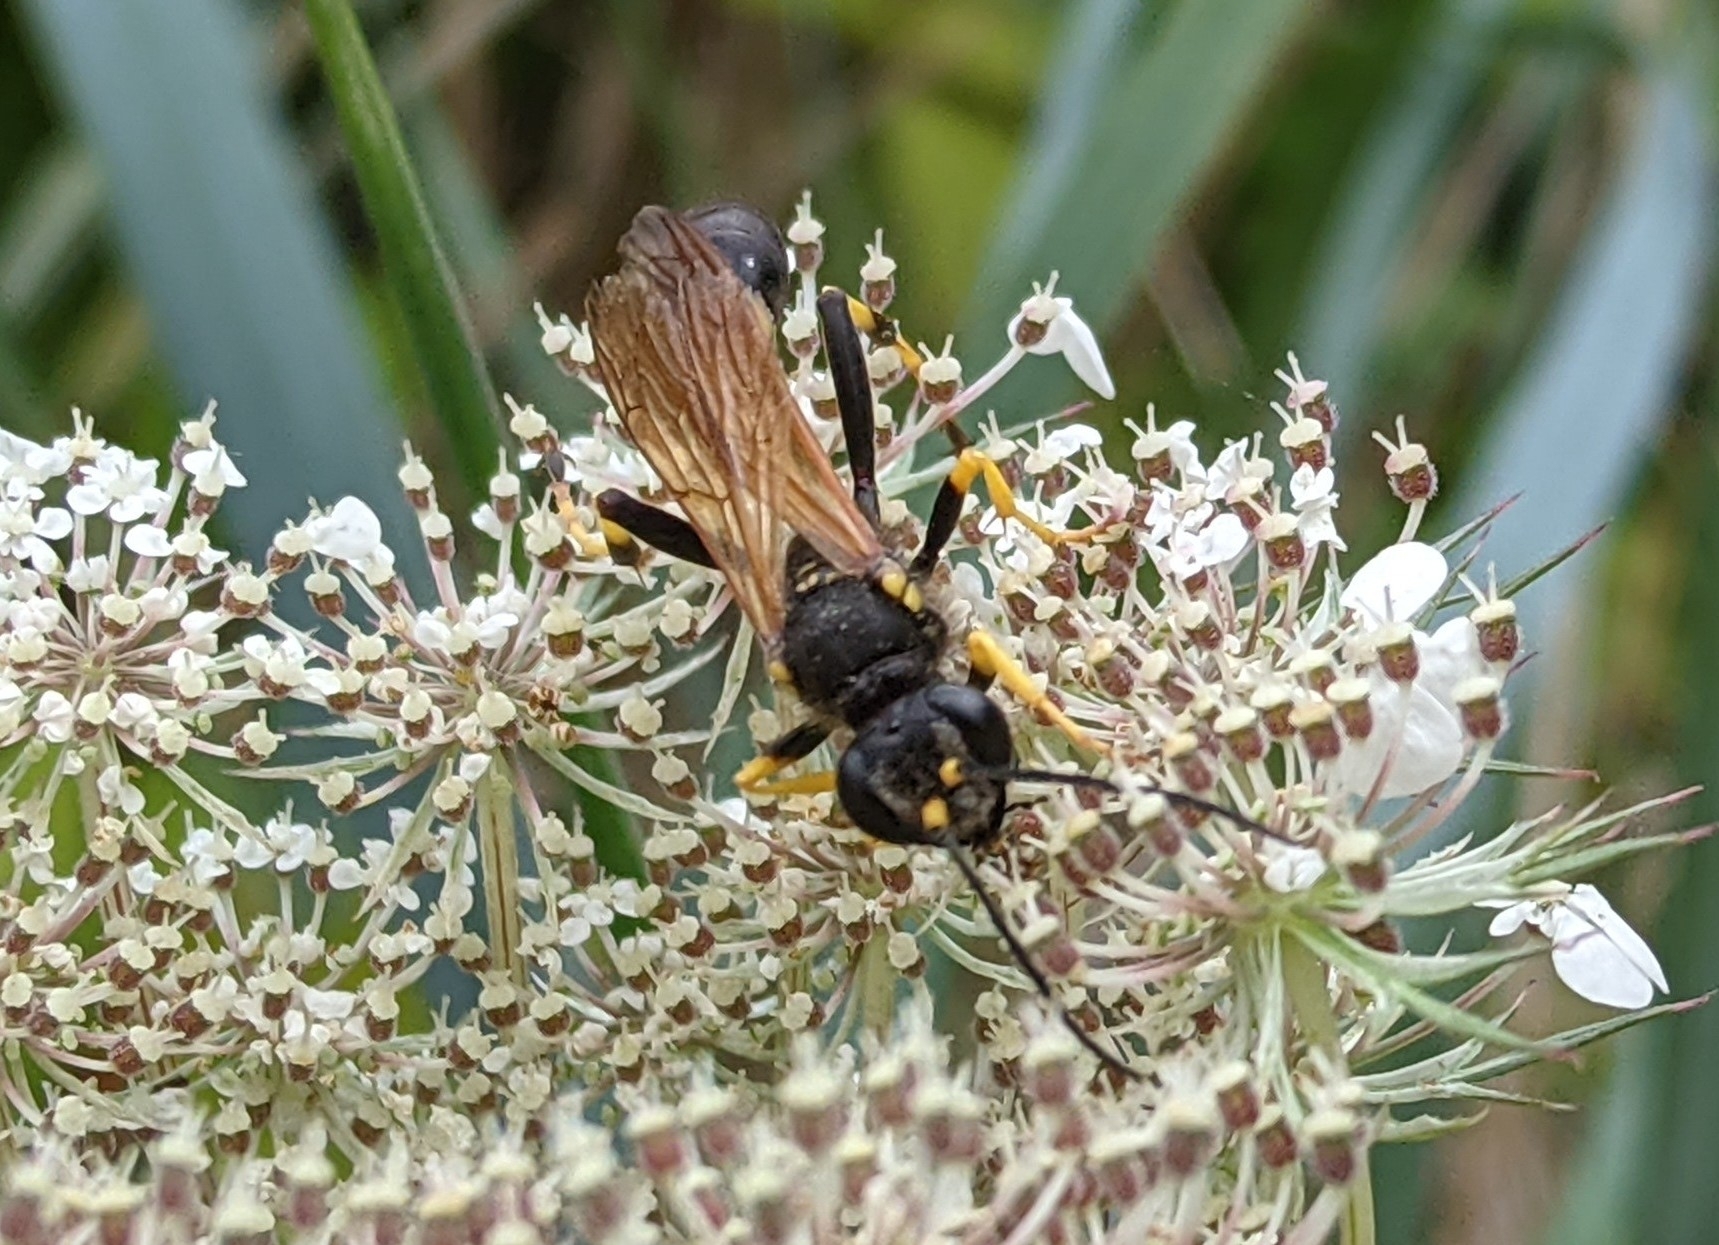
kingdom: Animalia
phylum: Arthropoda
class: Insecta
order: Hymenoptera
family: Sphecidae
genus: Sceliphron
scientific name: Sceliphron caementarium
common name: Mud dauber
